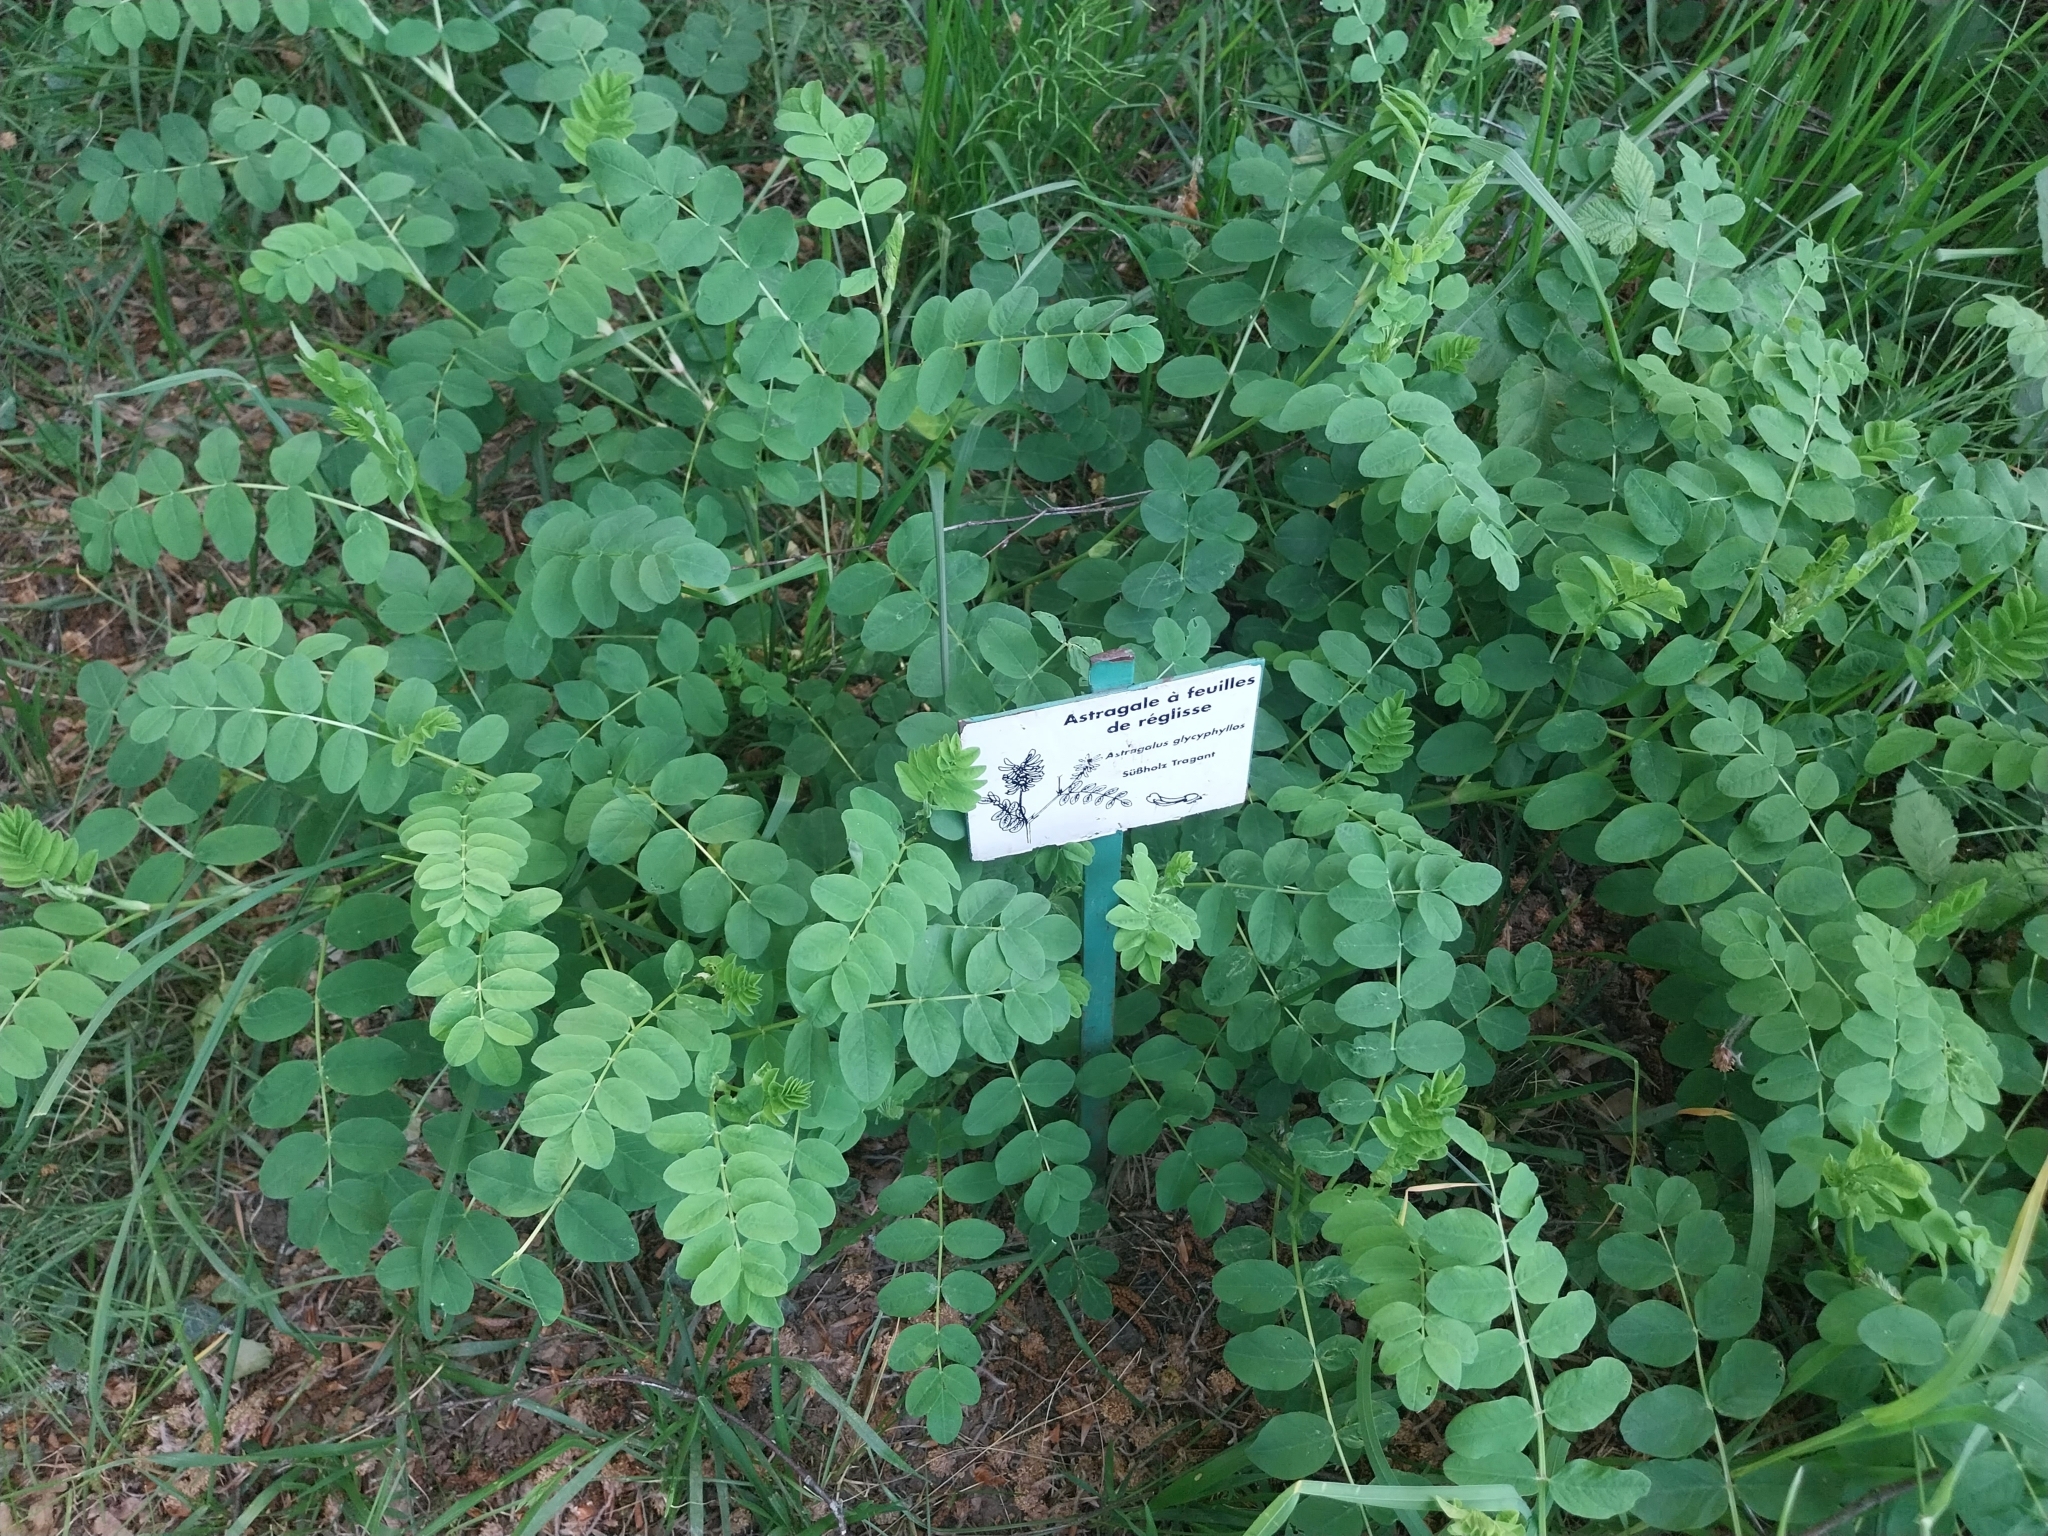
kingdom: Plantae
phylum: Tracheophyta
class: Magnoliopsida
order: Fabales
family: Fabaceae
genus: Astragalus
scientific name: Astragalus glycyphyllos
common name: Wild liquorice
